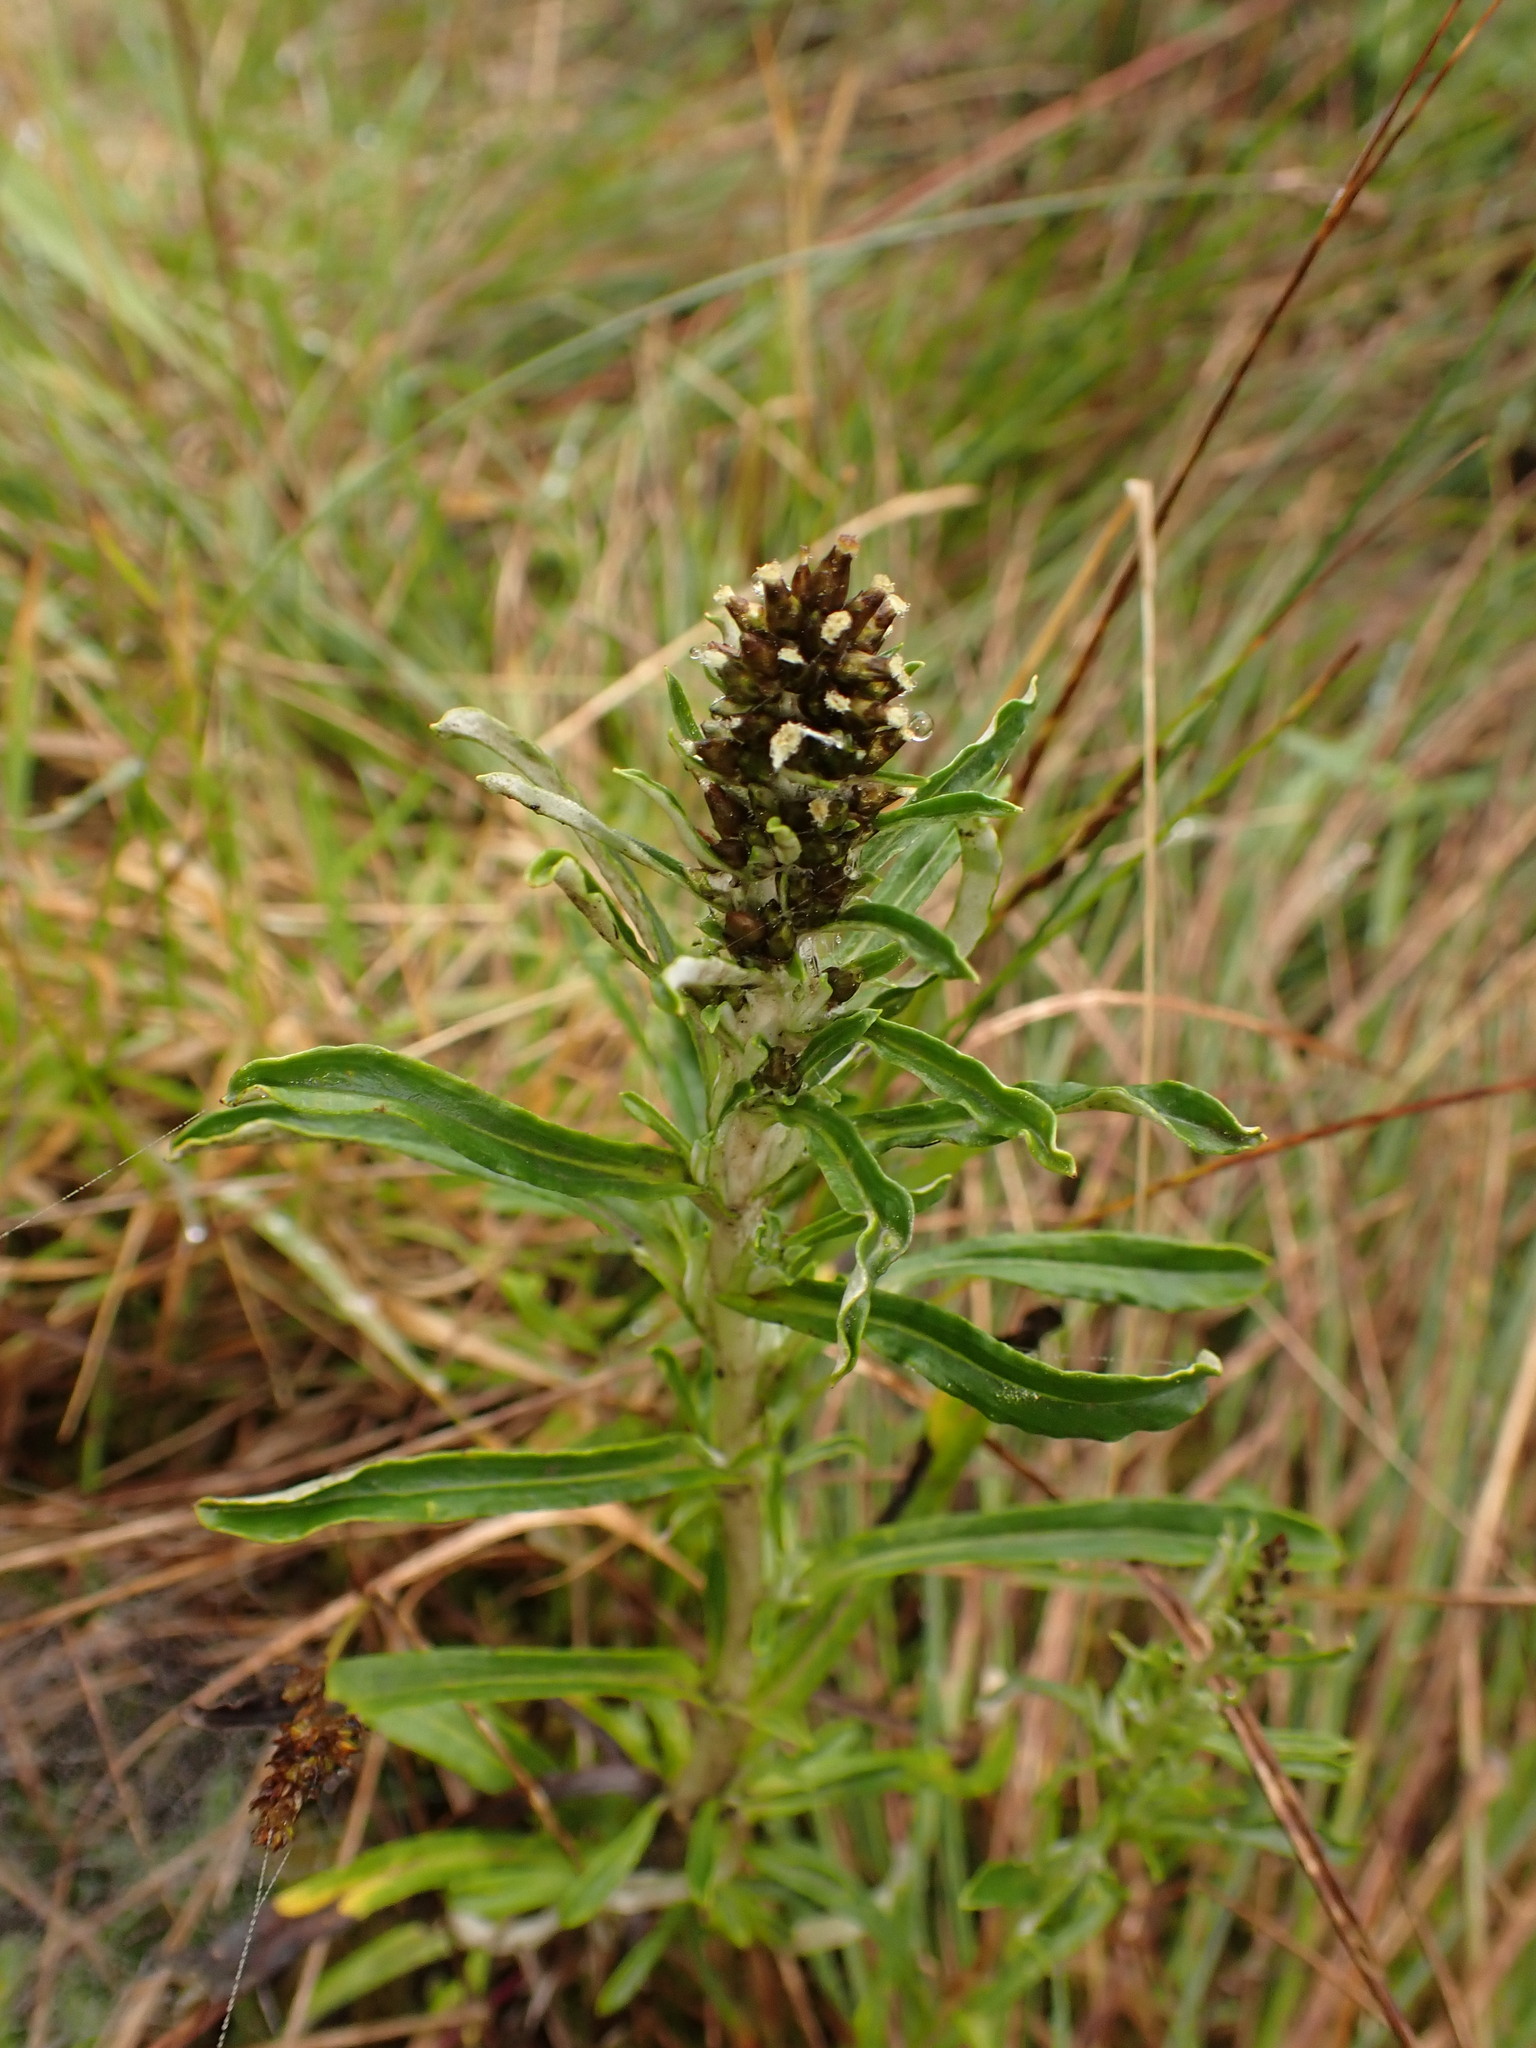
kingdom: Plantae
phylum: Tracheophyta
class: Magnoliopsida
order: Asterales
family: Asteraceae
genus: Gamochaeta
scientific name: Gamochaeta americana
